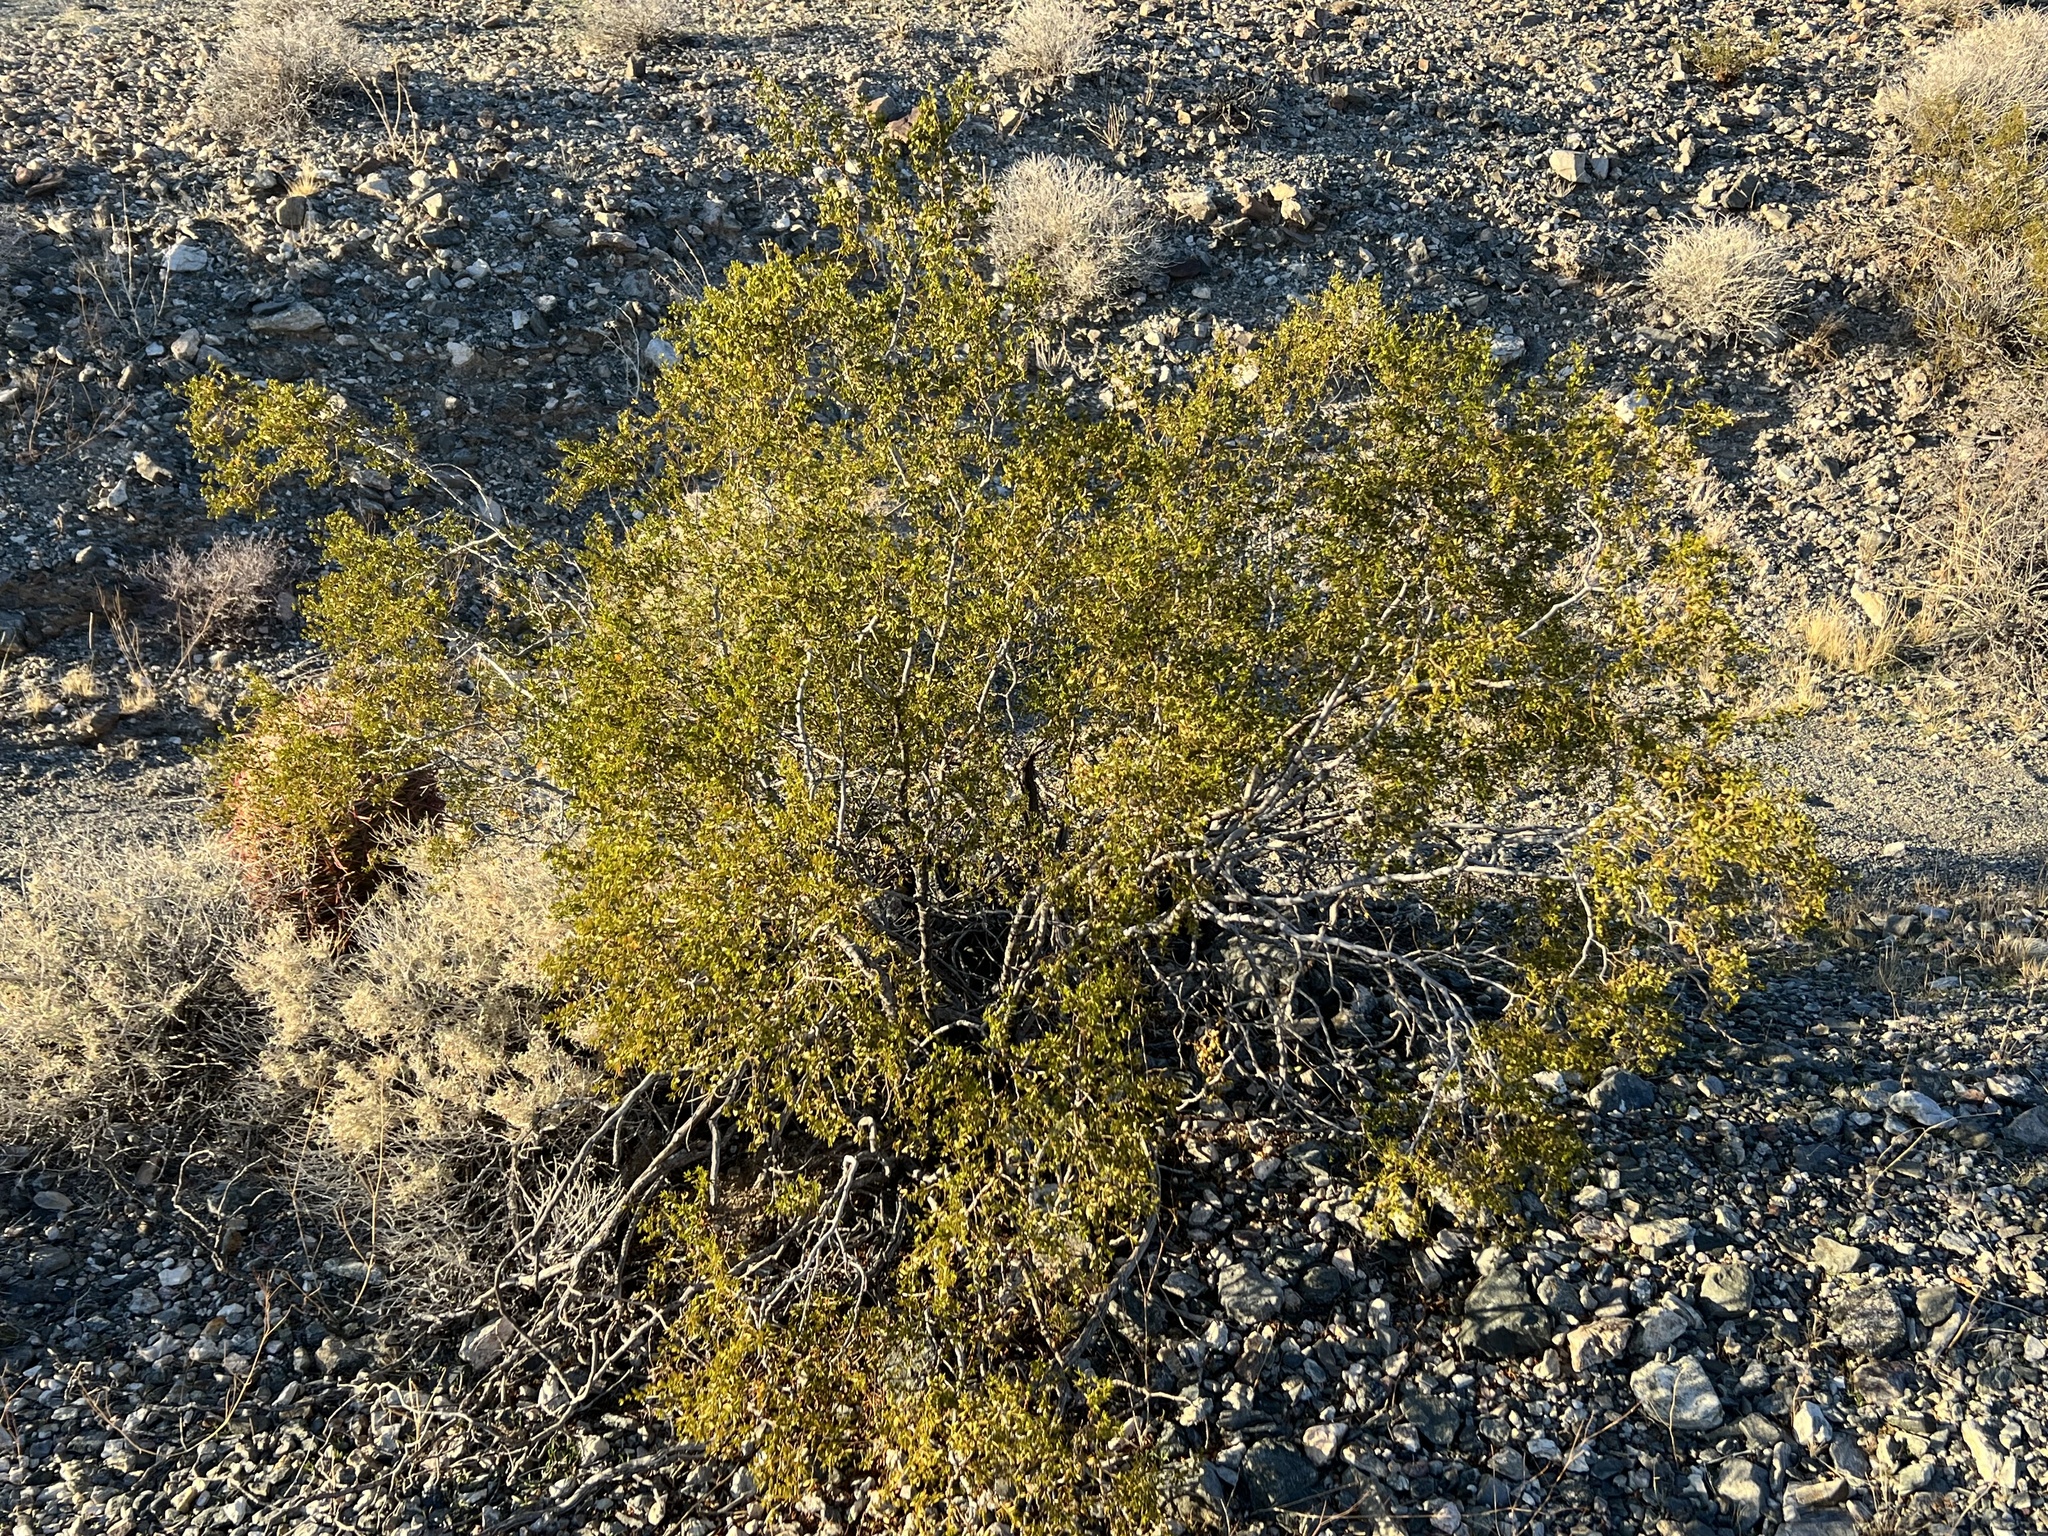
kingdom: Plantae
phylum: Tracheophyta
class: Magnoliopsida
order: Zygophyllales
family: Zygophyllaceae
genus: Larrea
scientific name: Larrea tridentata
